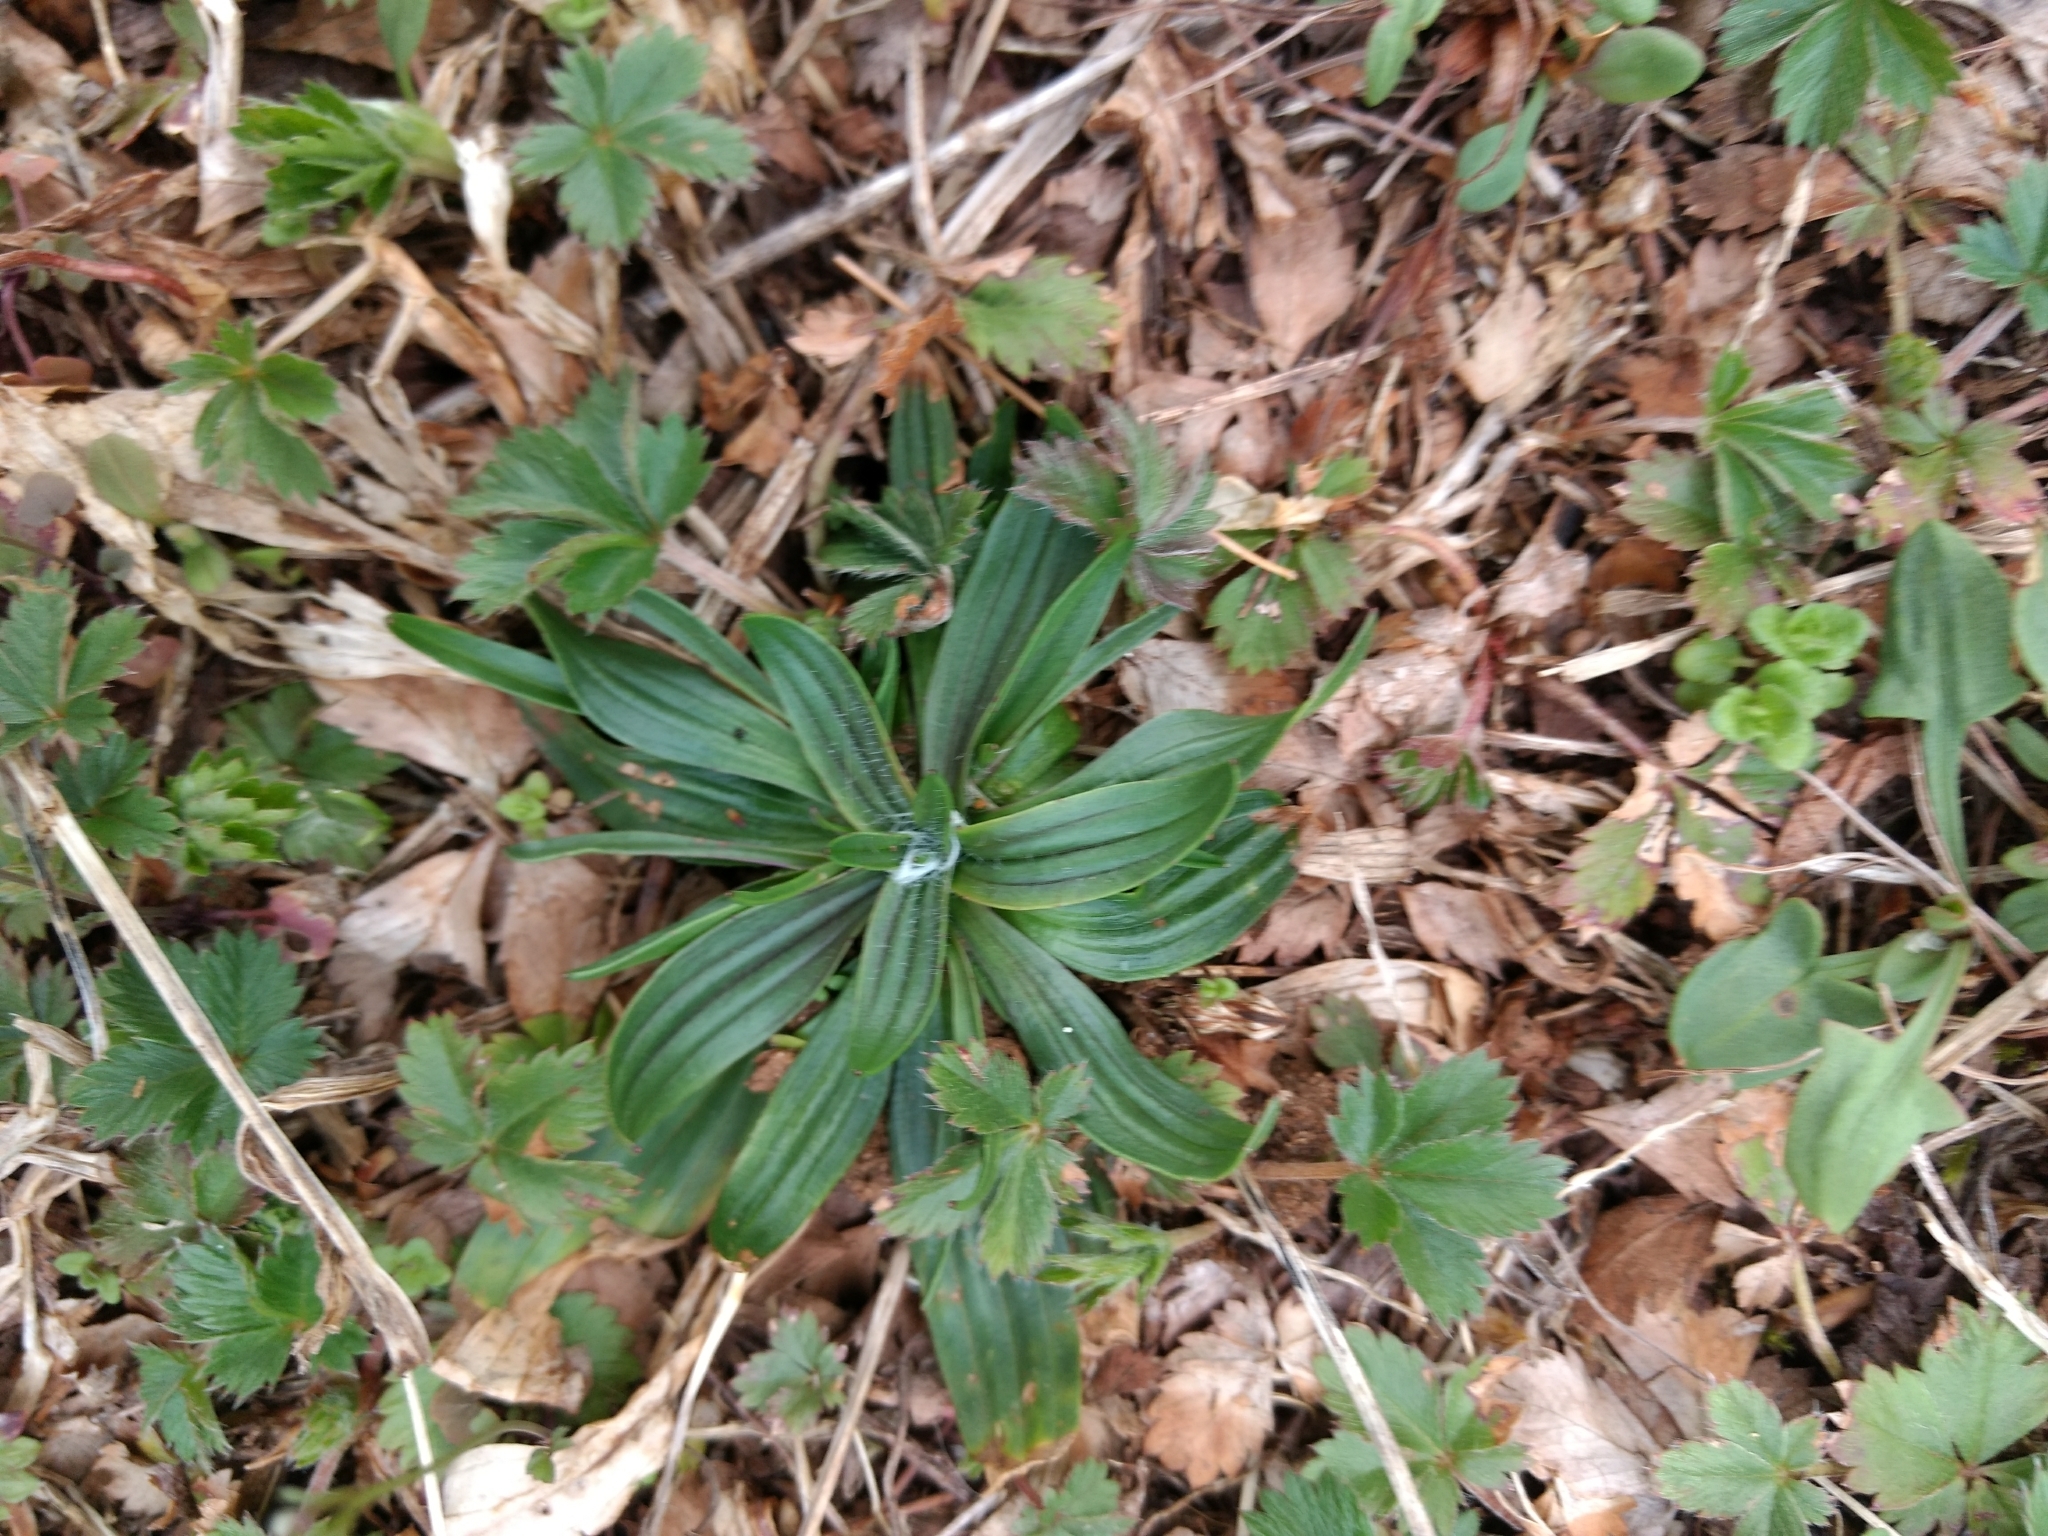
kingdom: Plantae
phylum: Tracheophyta
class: Magnoliopsida
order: Lamiales
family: Plantaginaceae
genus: Plantago
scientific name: Plantago lanceolata
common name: Ribwort plantain
